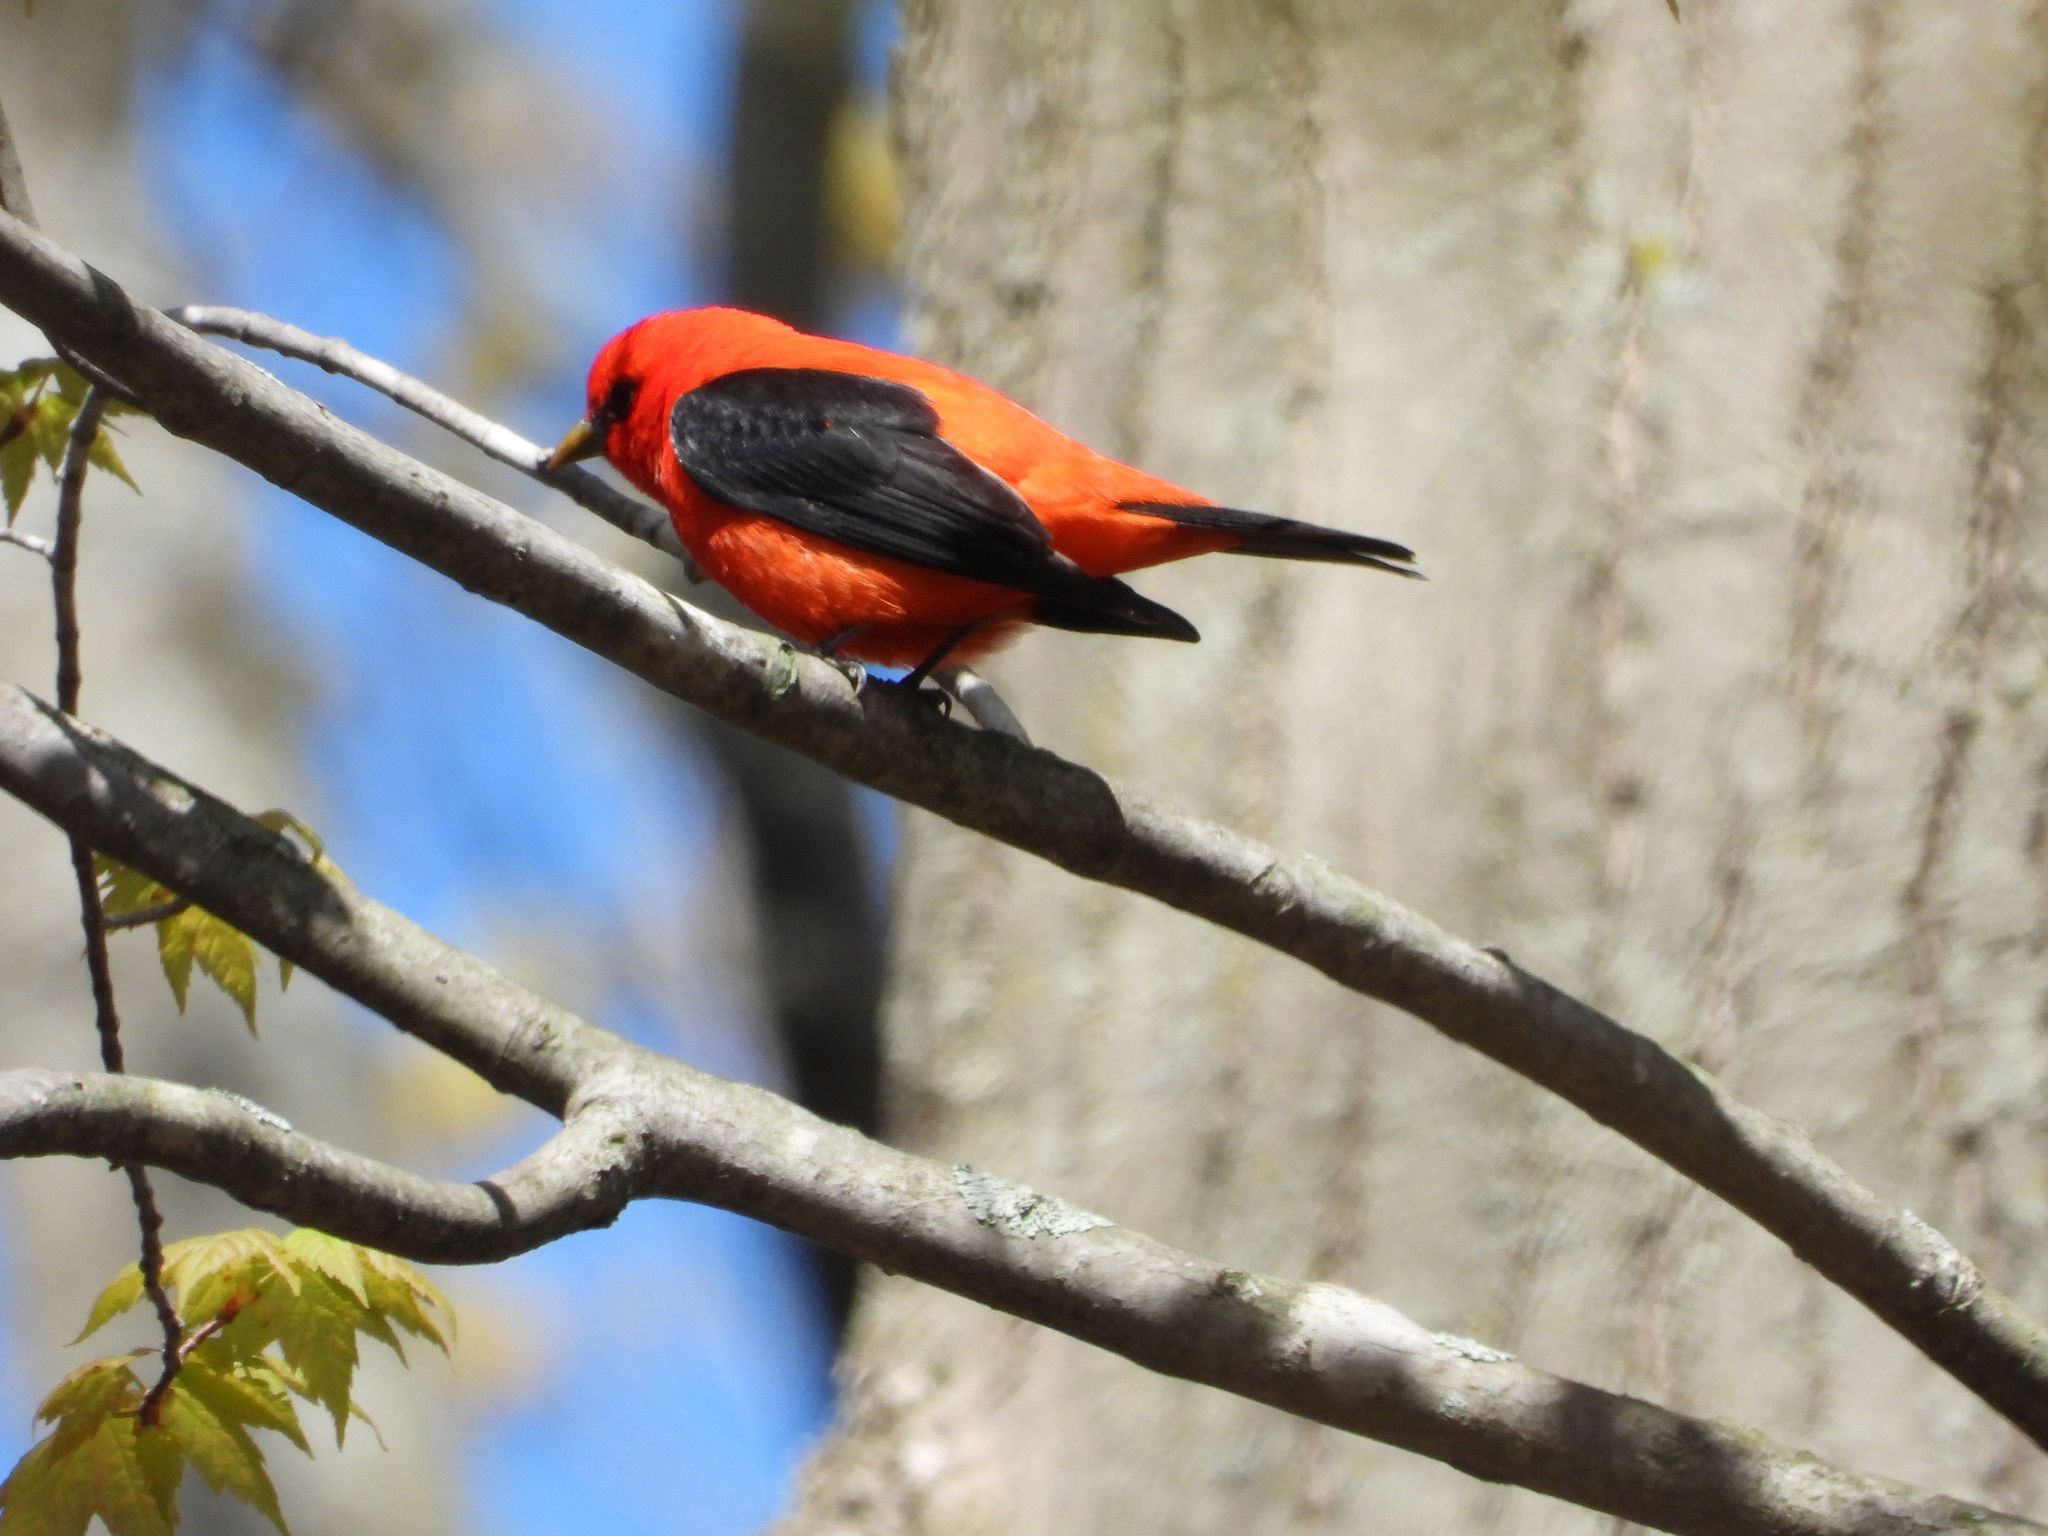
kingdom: Animalia
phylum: Chordata
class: Aves
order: Passeriformes
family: Cardinalidae
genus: Piranga
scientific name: Piranga olivacea
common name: Scarlet tanager
